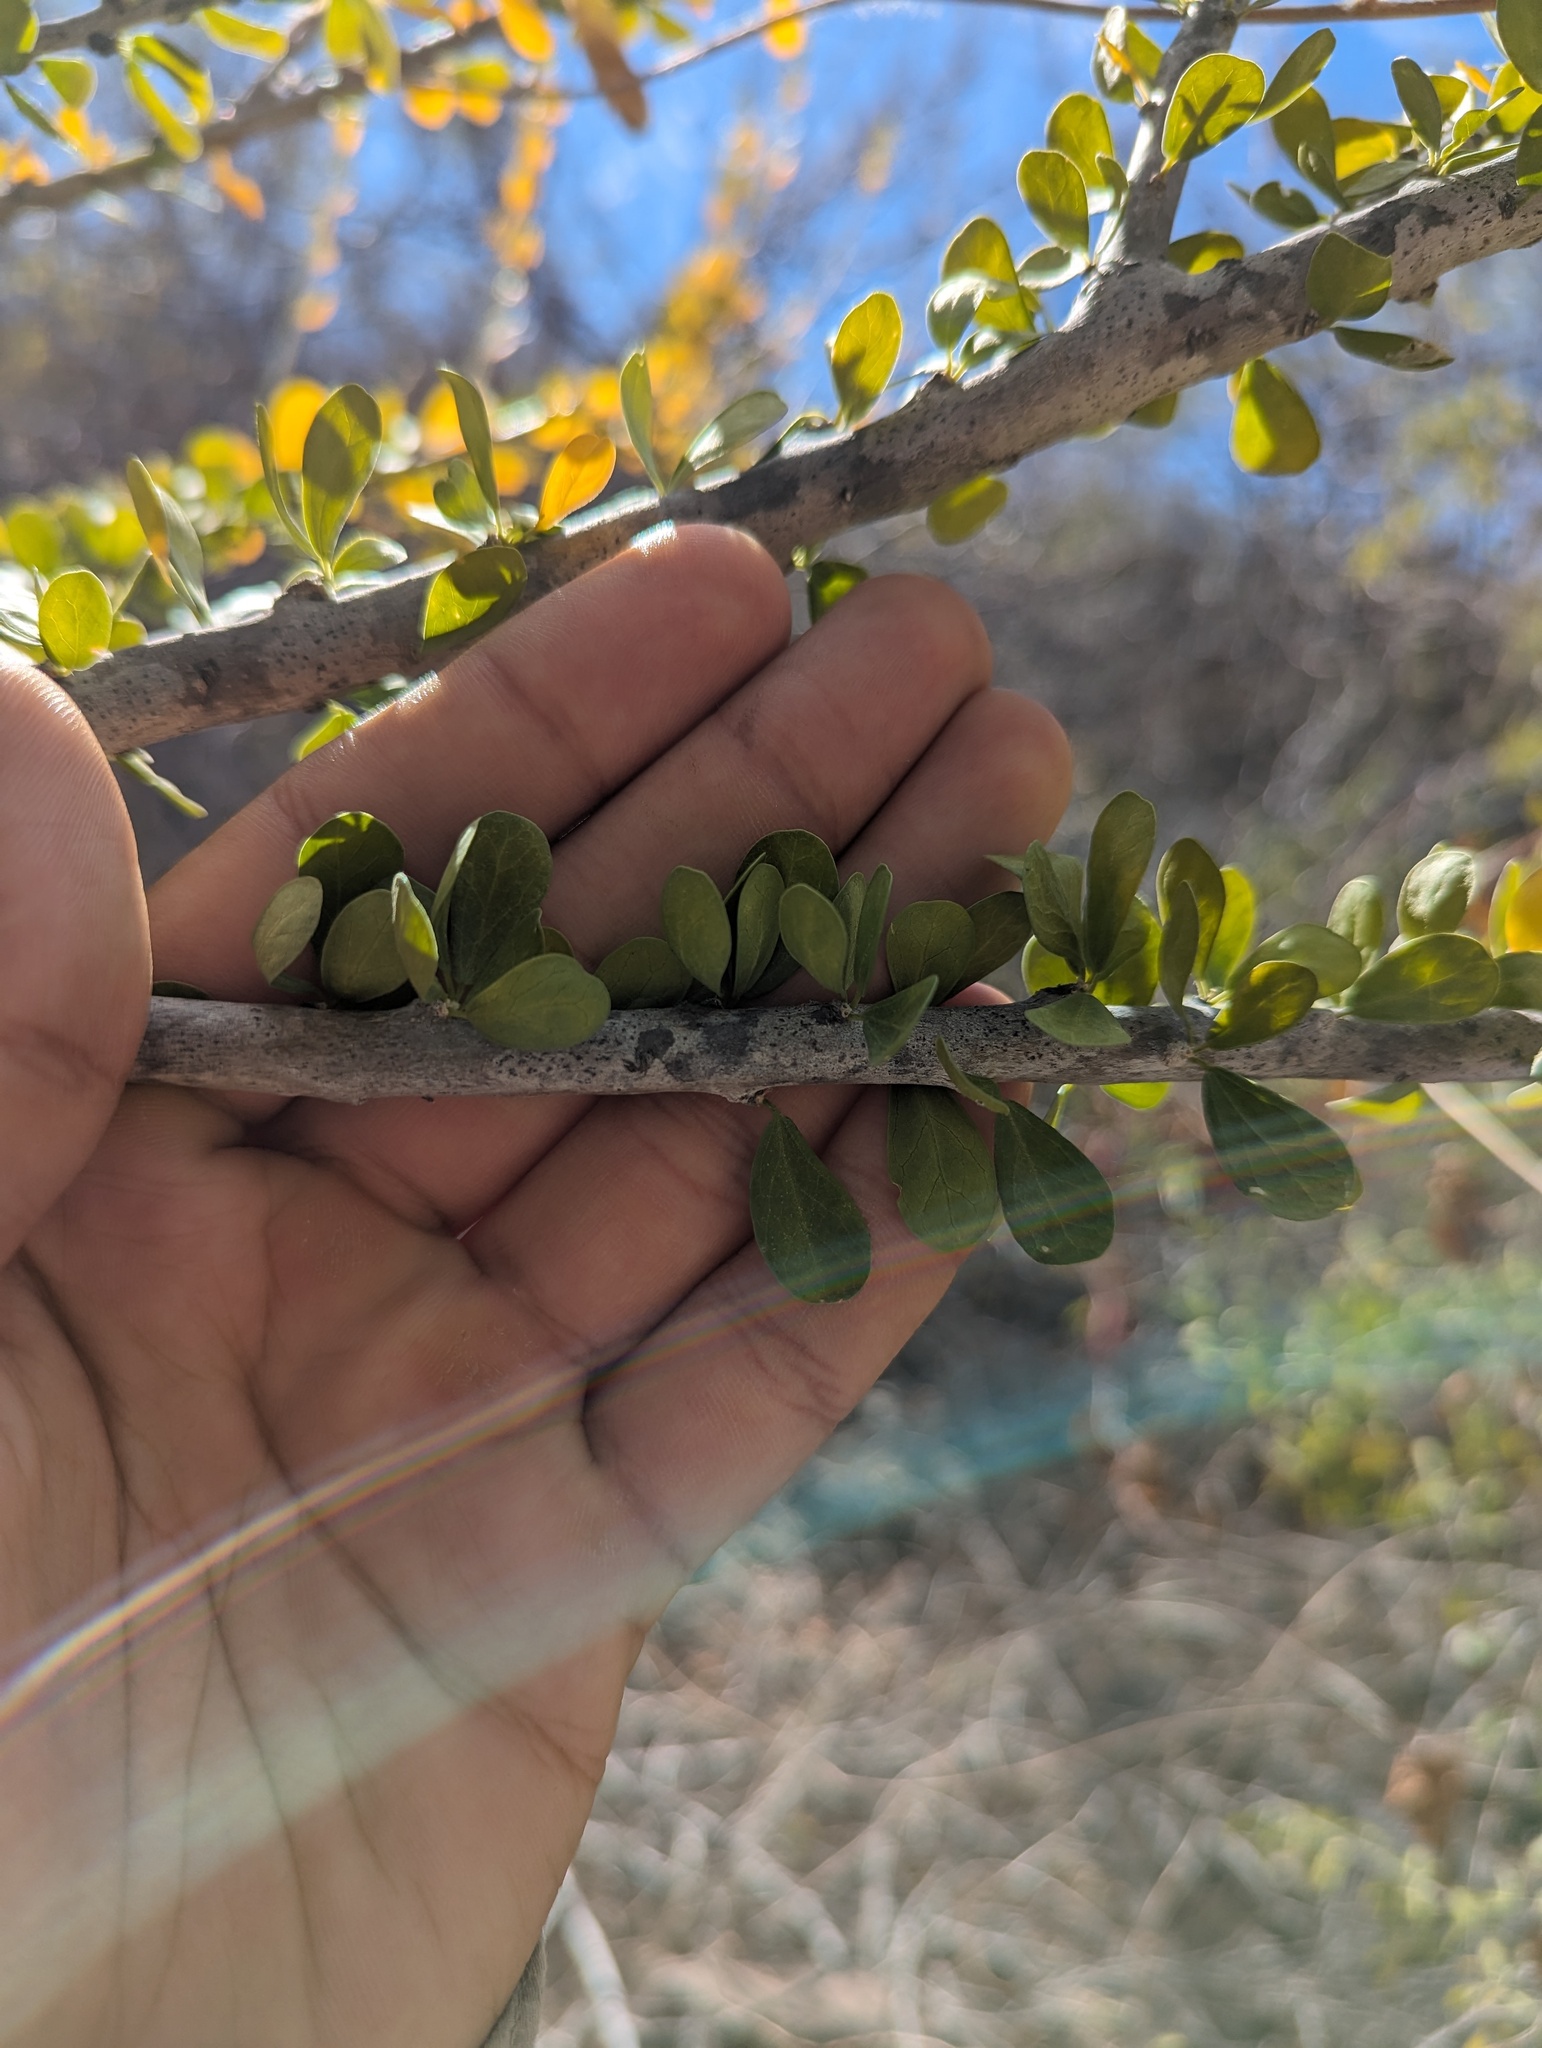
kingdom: Plantae
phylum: Tracheophyta
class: Magnoliopsida
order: Malpighiales
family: Euphorbiaceae
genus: Adelia
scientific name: Adelia brandegeei
